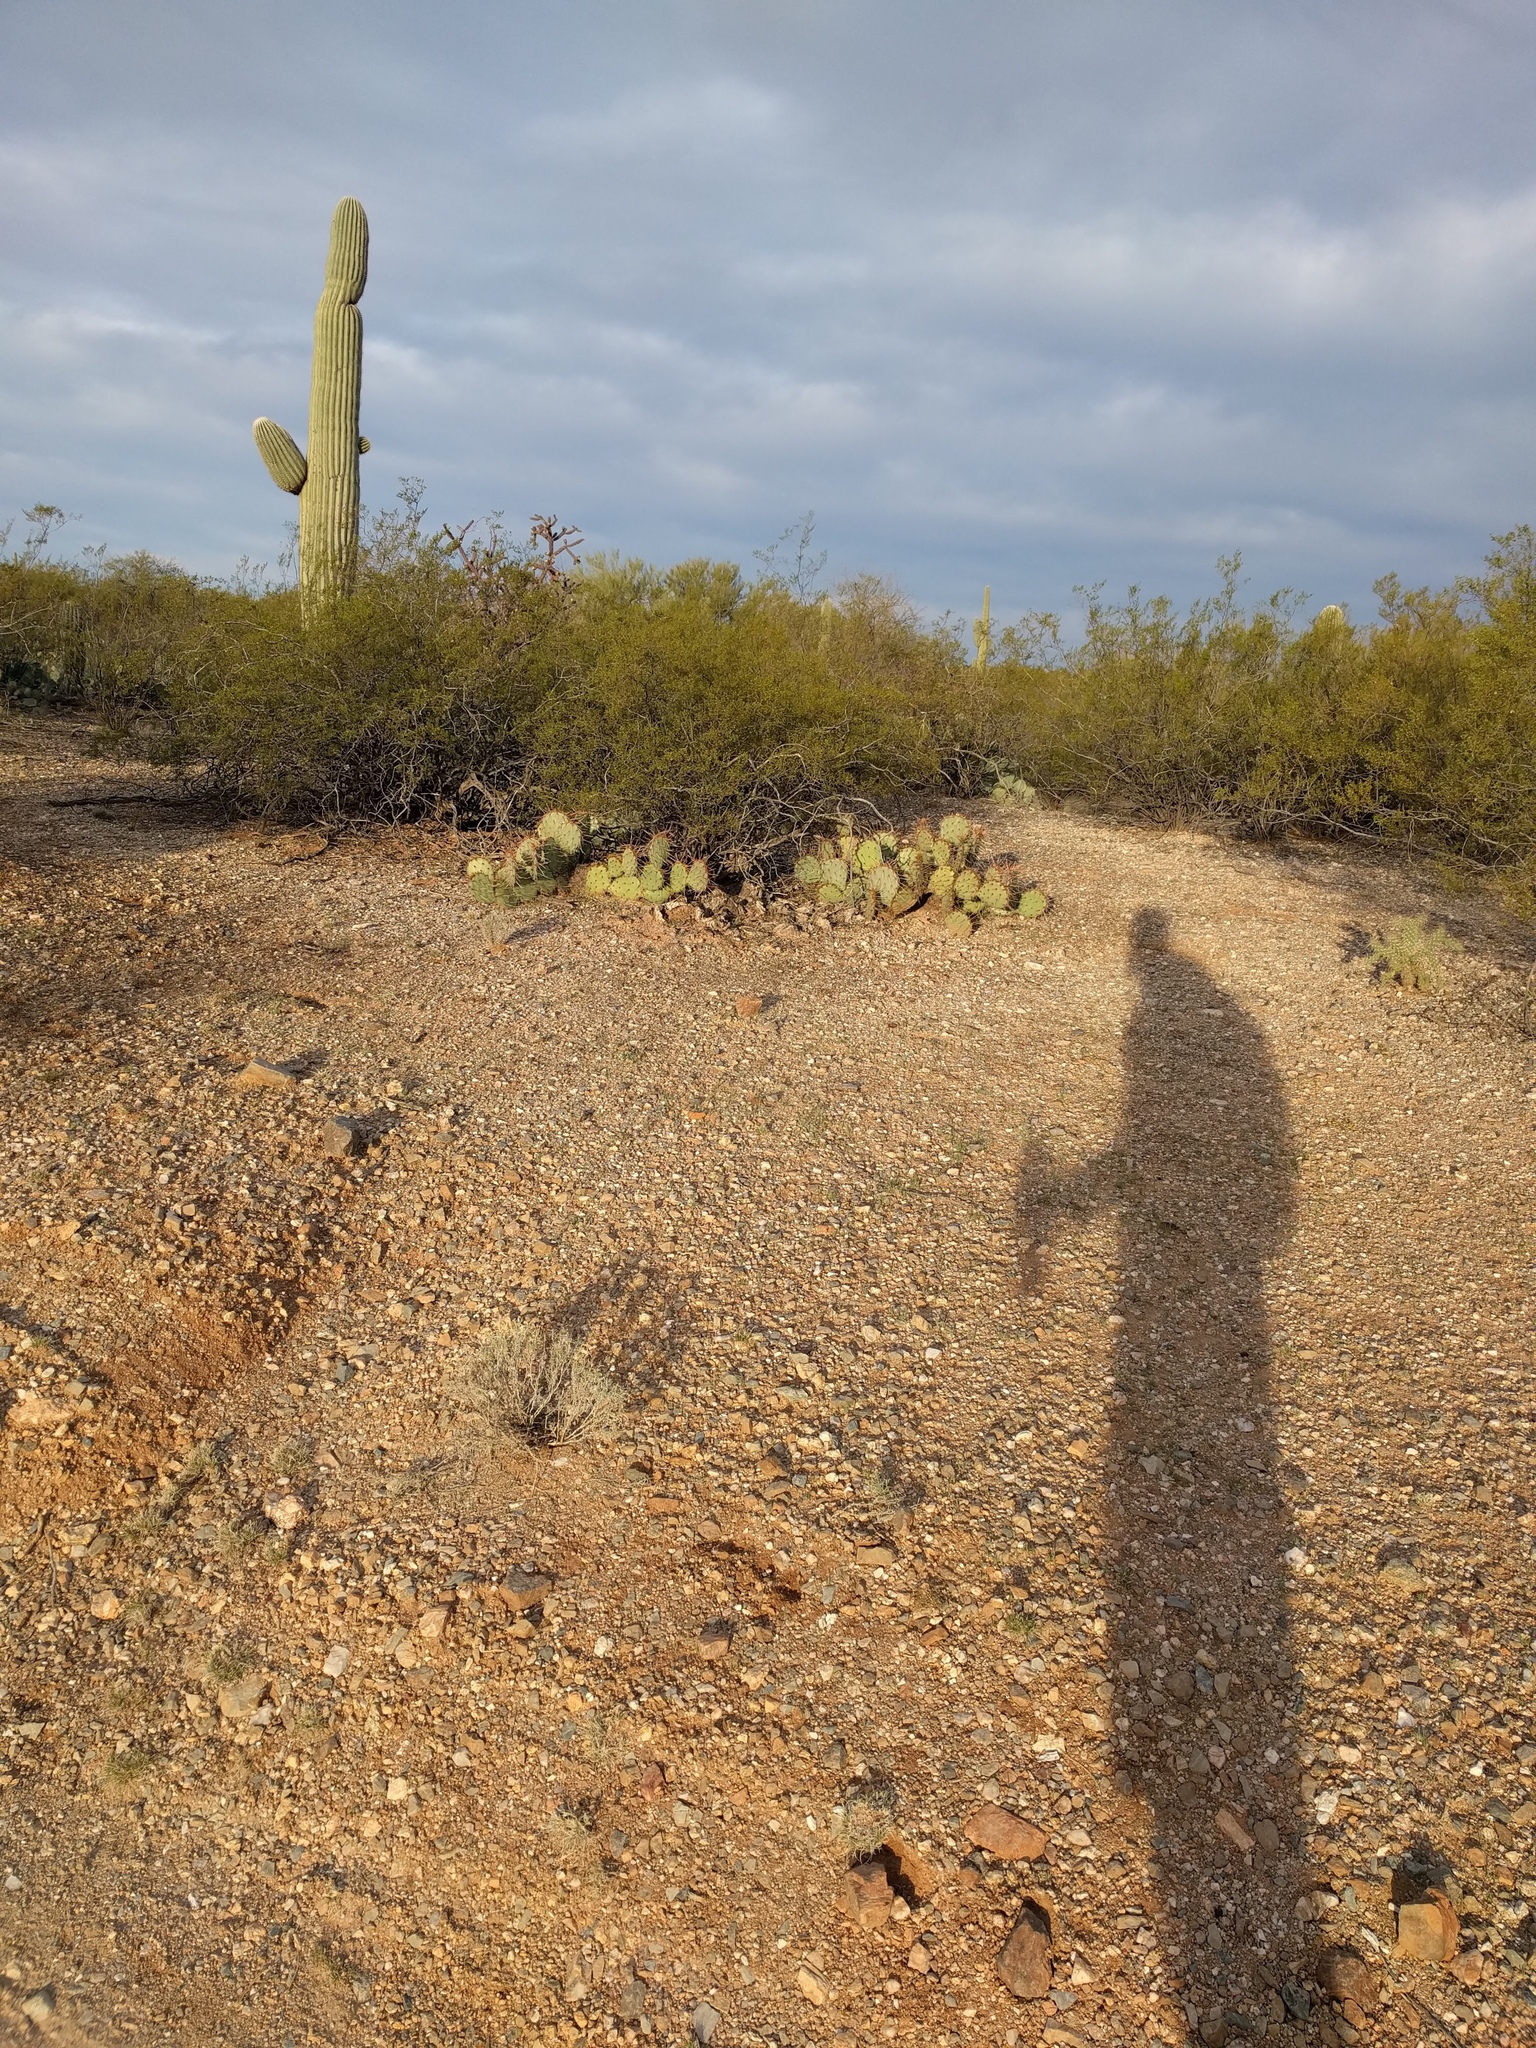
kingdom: Plantae
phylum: Tracheophyta
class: Magnoliopsida
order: Caryophyllales
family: Cactaceae
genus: Carnegiea
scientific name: Carnegiea gigantea
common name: Saguaro
